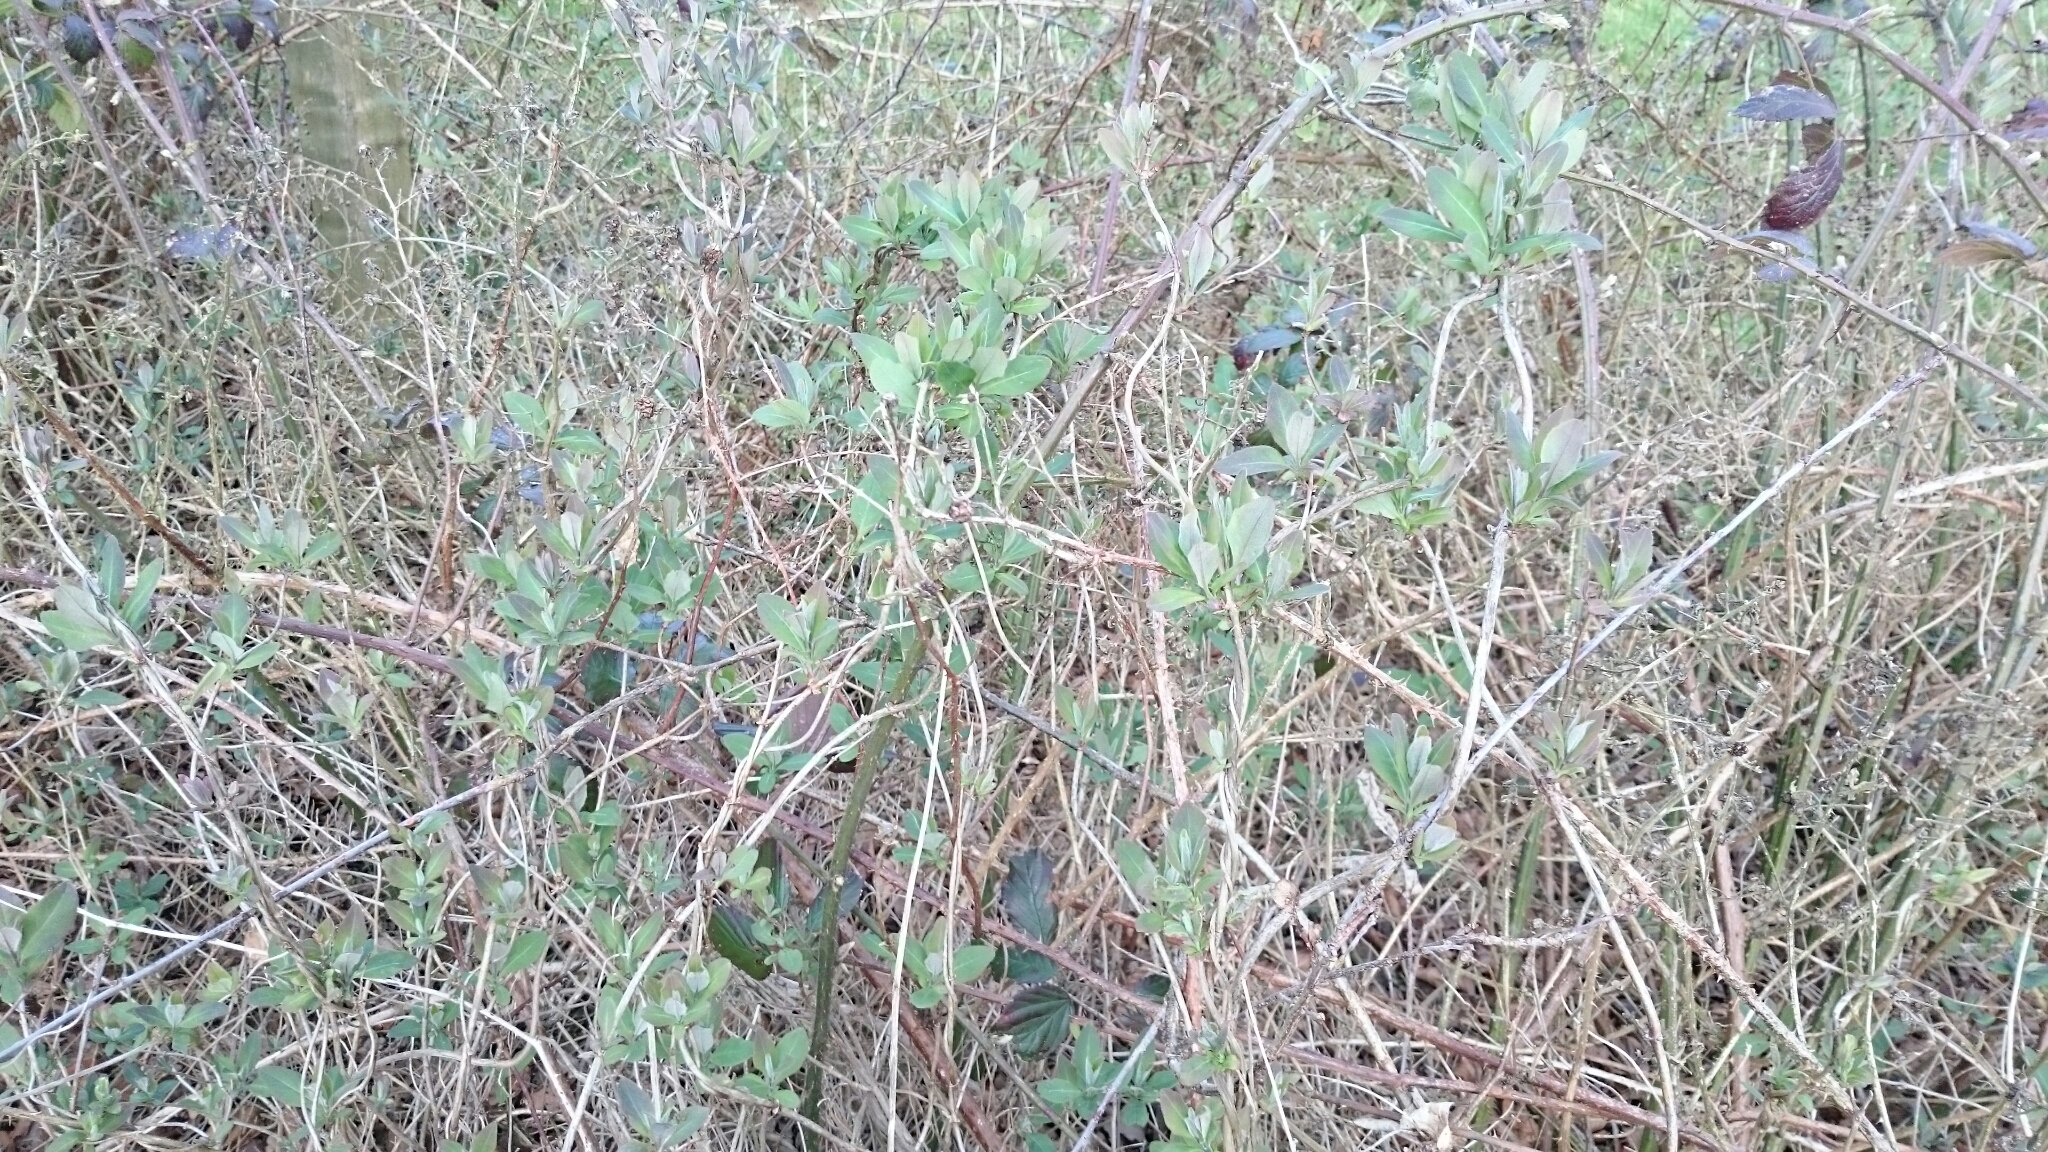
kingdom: Plantae
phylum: Tracheophyta
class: Magnoliopsida
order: Dipsacales
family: Caprifoliaceae
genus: Lonicera
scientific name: Lonicera periclymenum
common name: European honeysuckle
